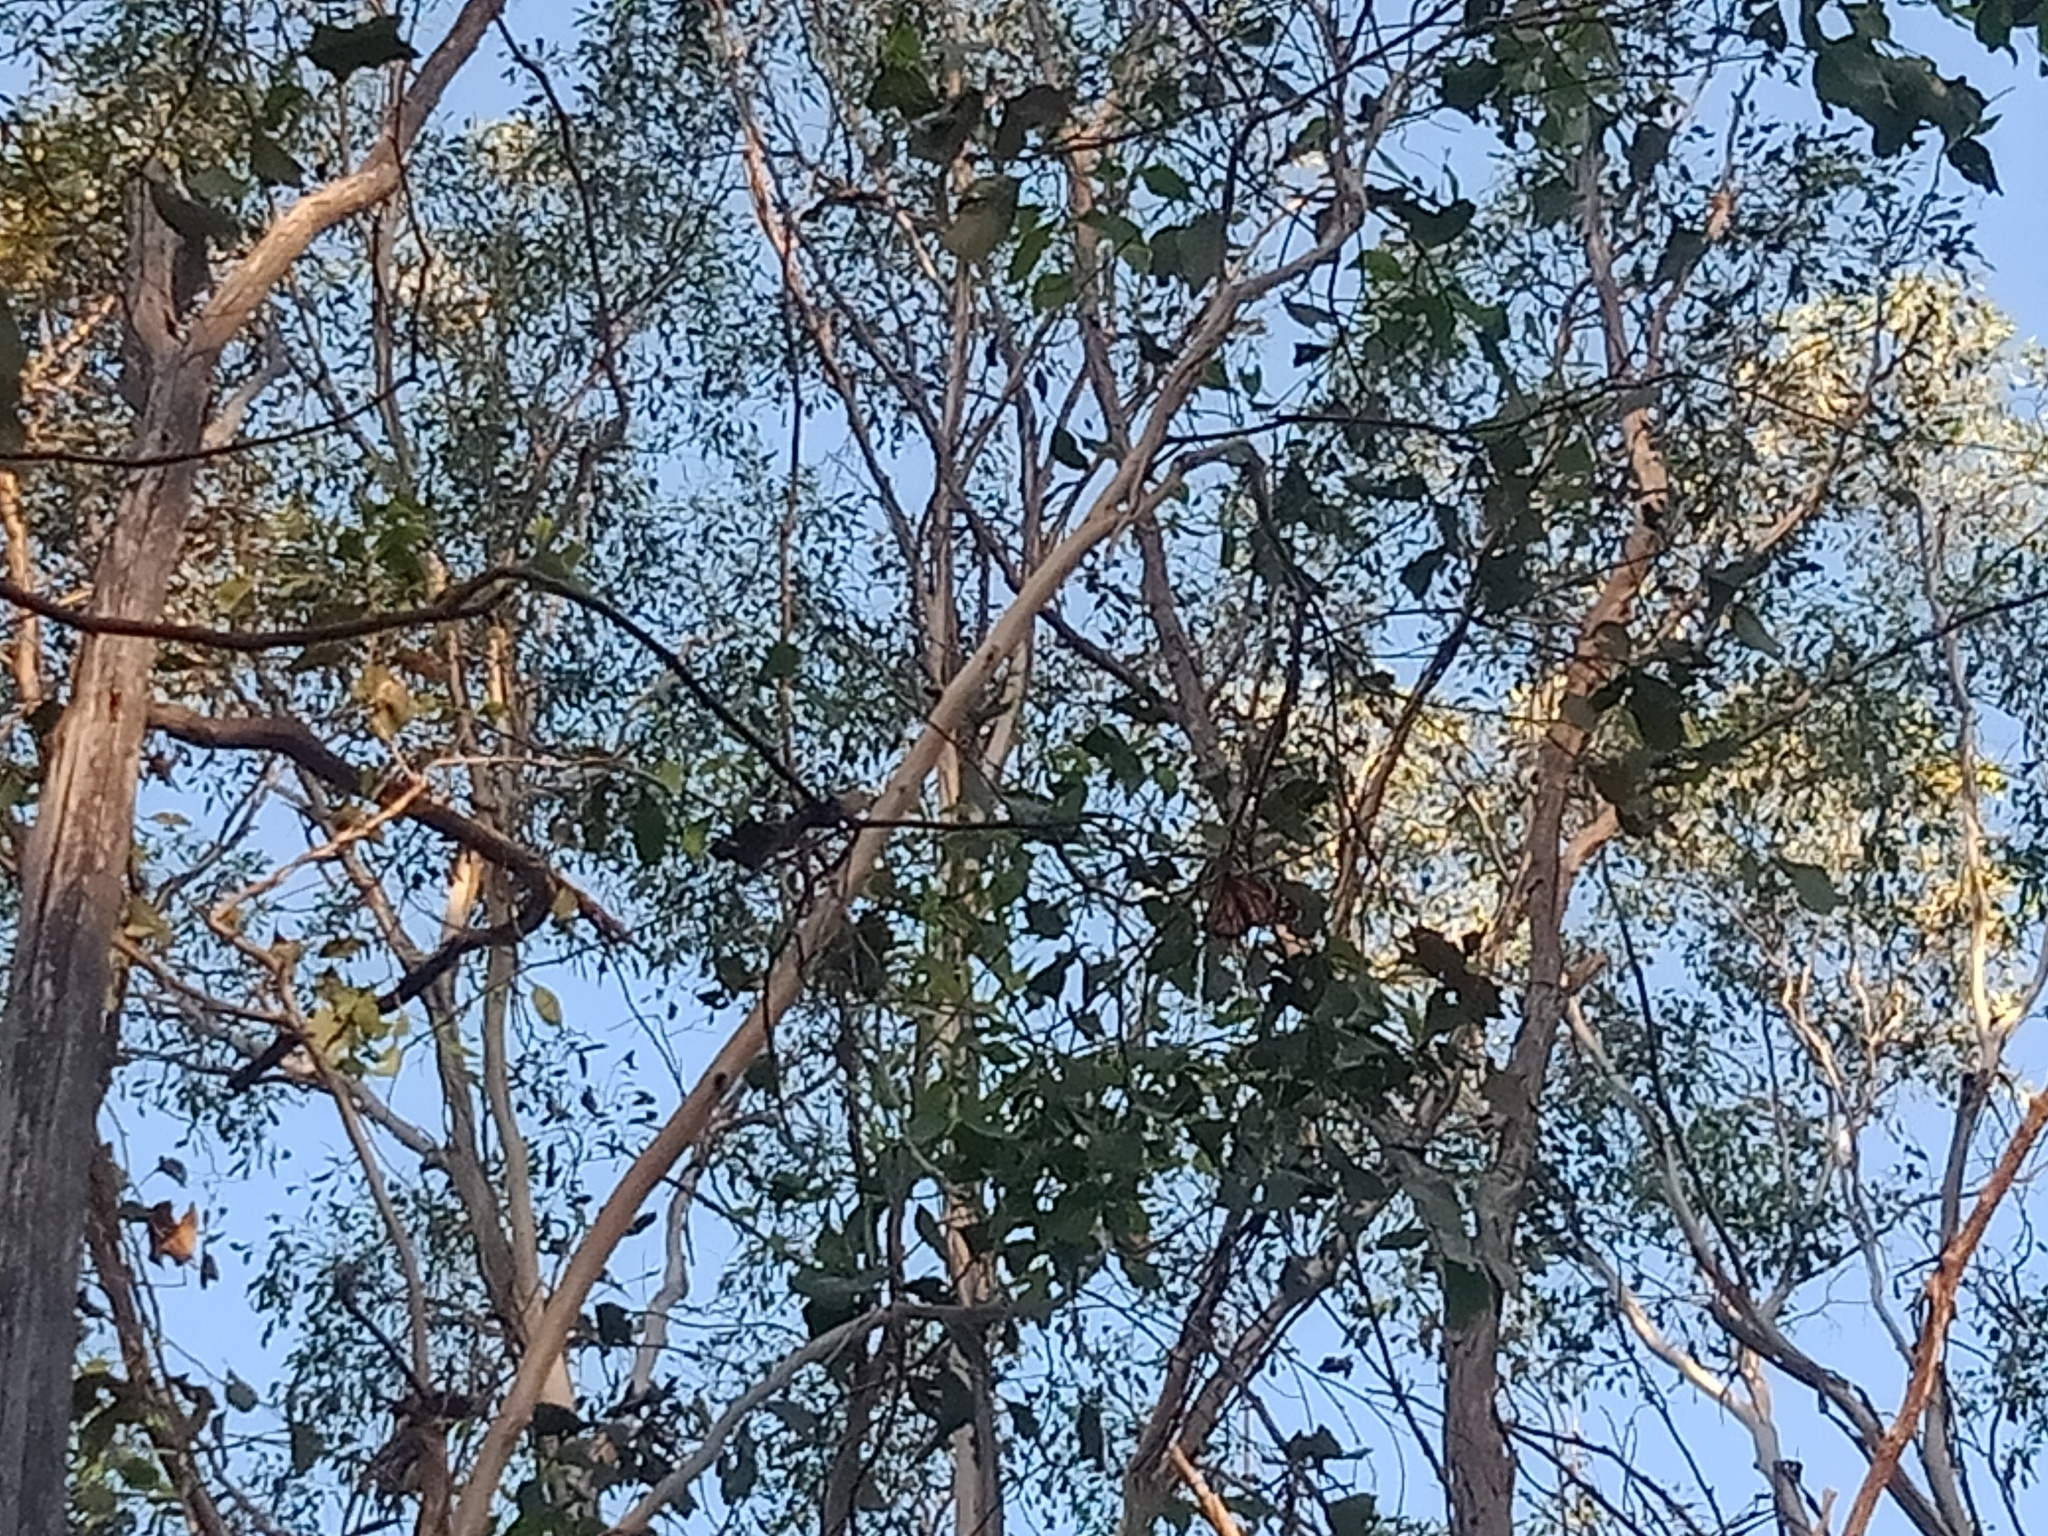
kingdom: Animalia
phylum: Arthropoda
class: Insecta
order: Lepidoptera
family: Nymphalidae
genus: Danaus
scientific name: Danaus plexippus
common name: Monarch
